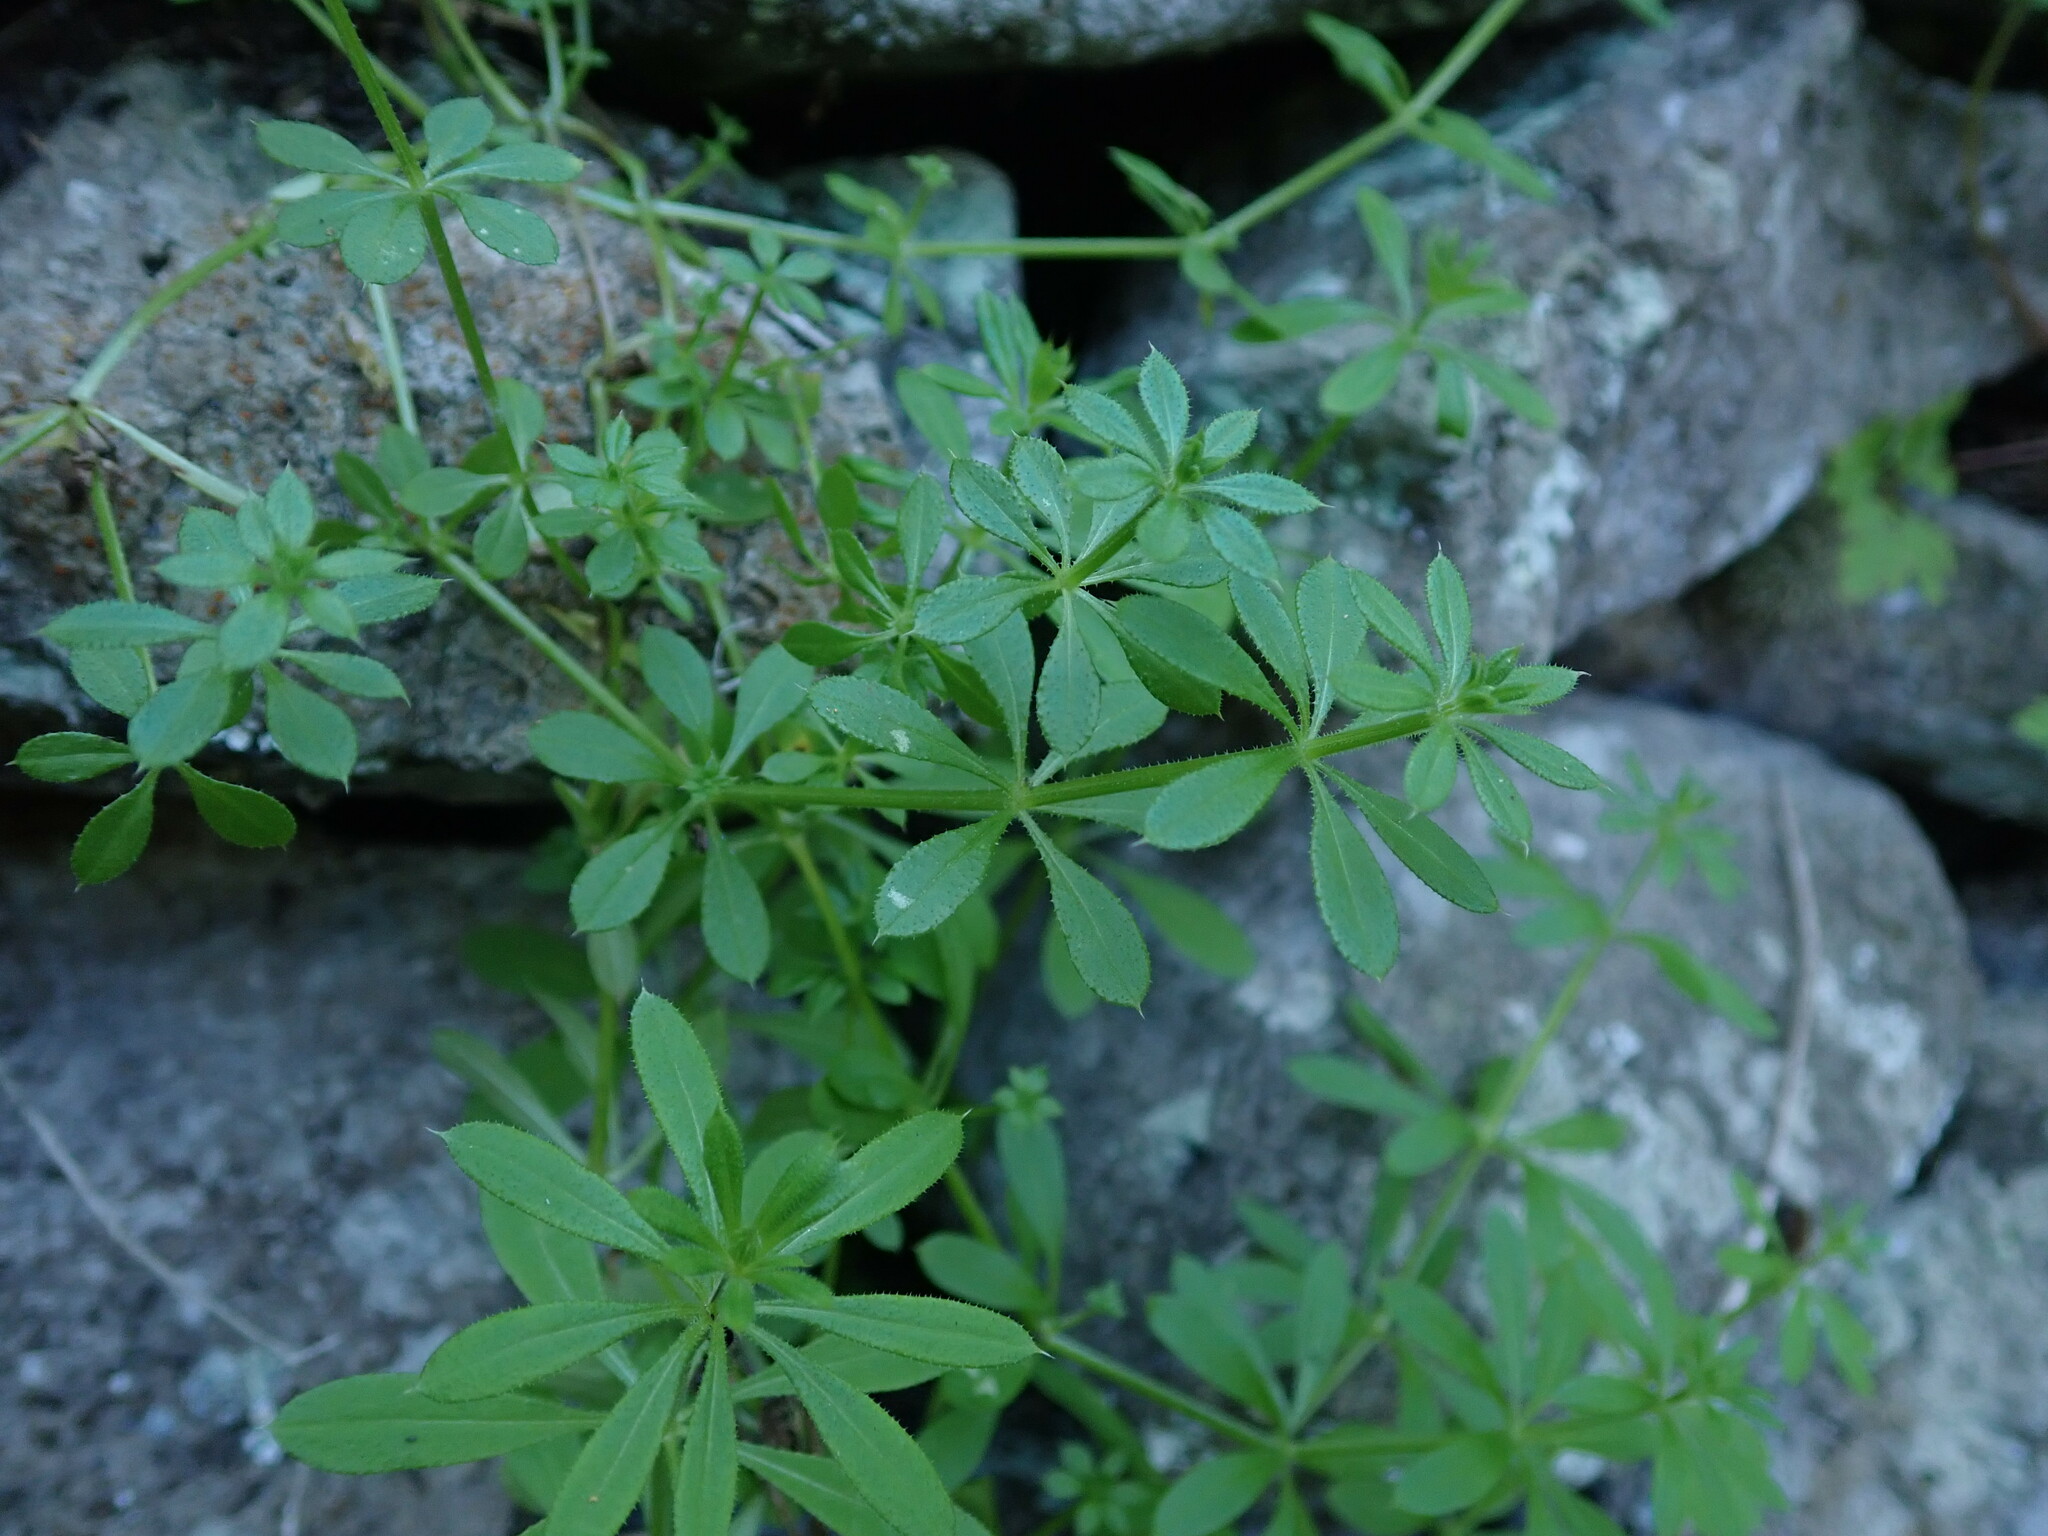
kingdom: Plantae
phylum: Tracheophyta
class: Magnoliopsida
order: Gentianales
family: Rubiaceae
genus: Galium
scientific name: Galium aparine
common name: Cleavers
